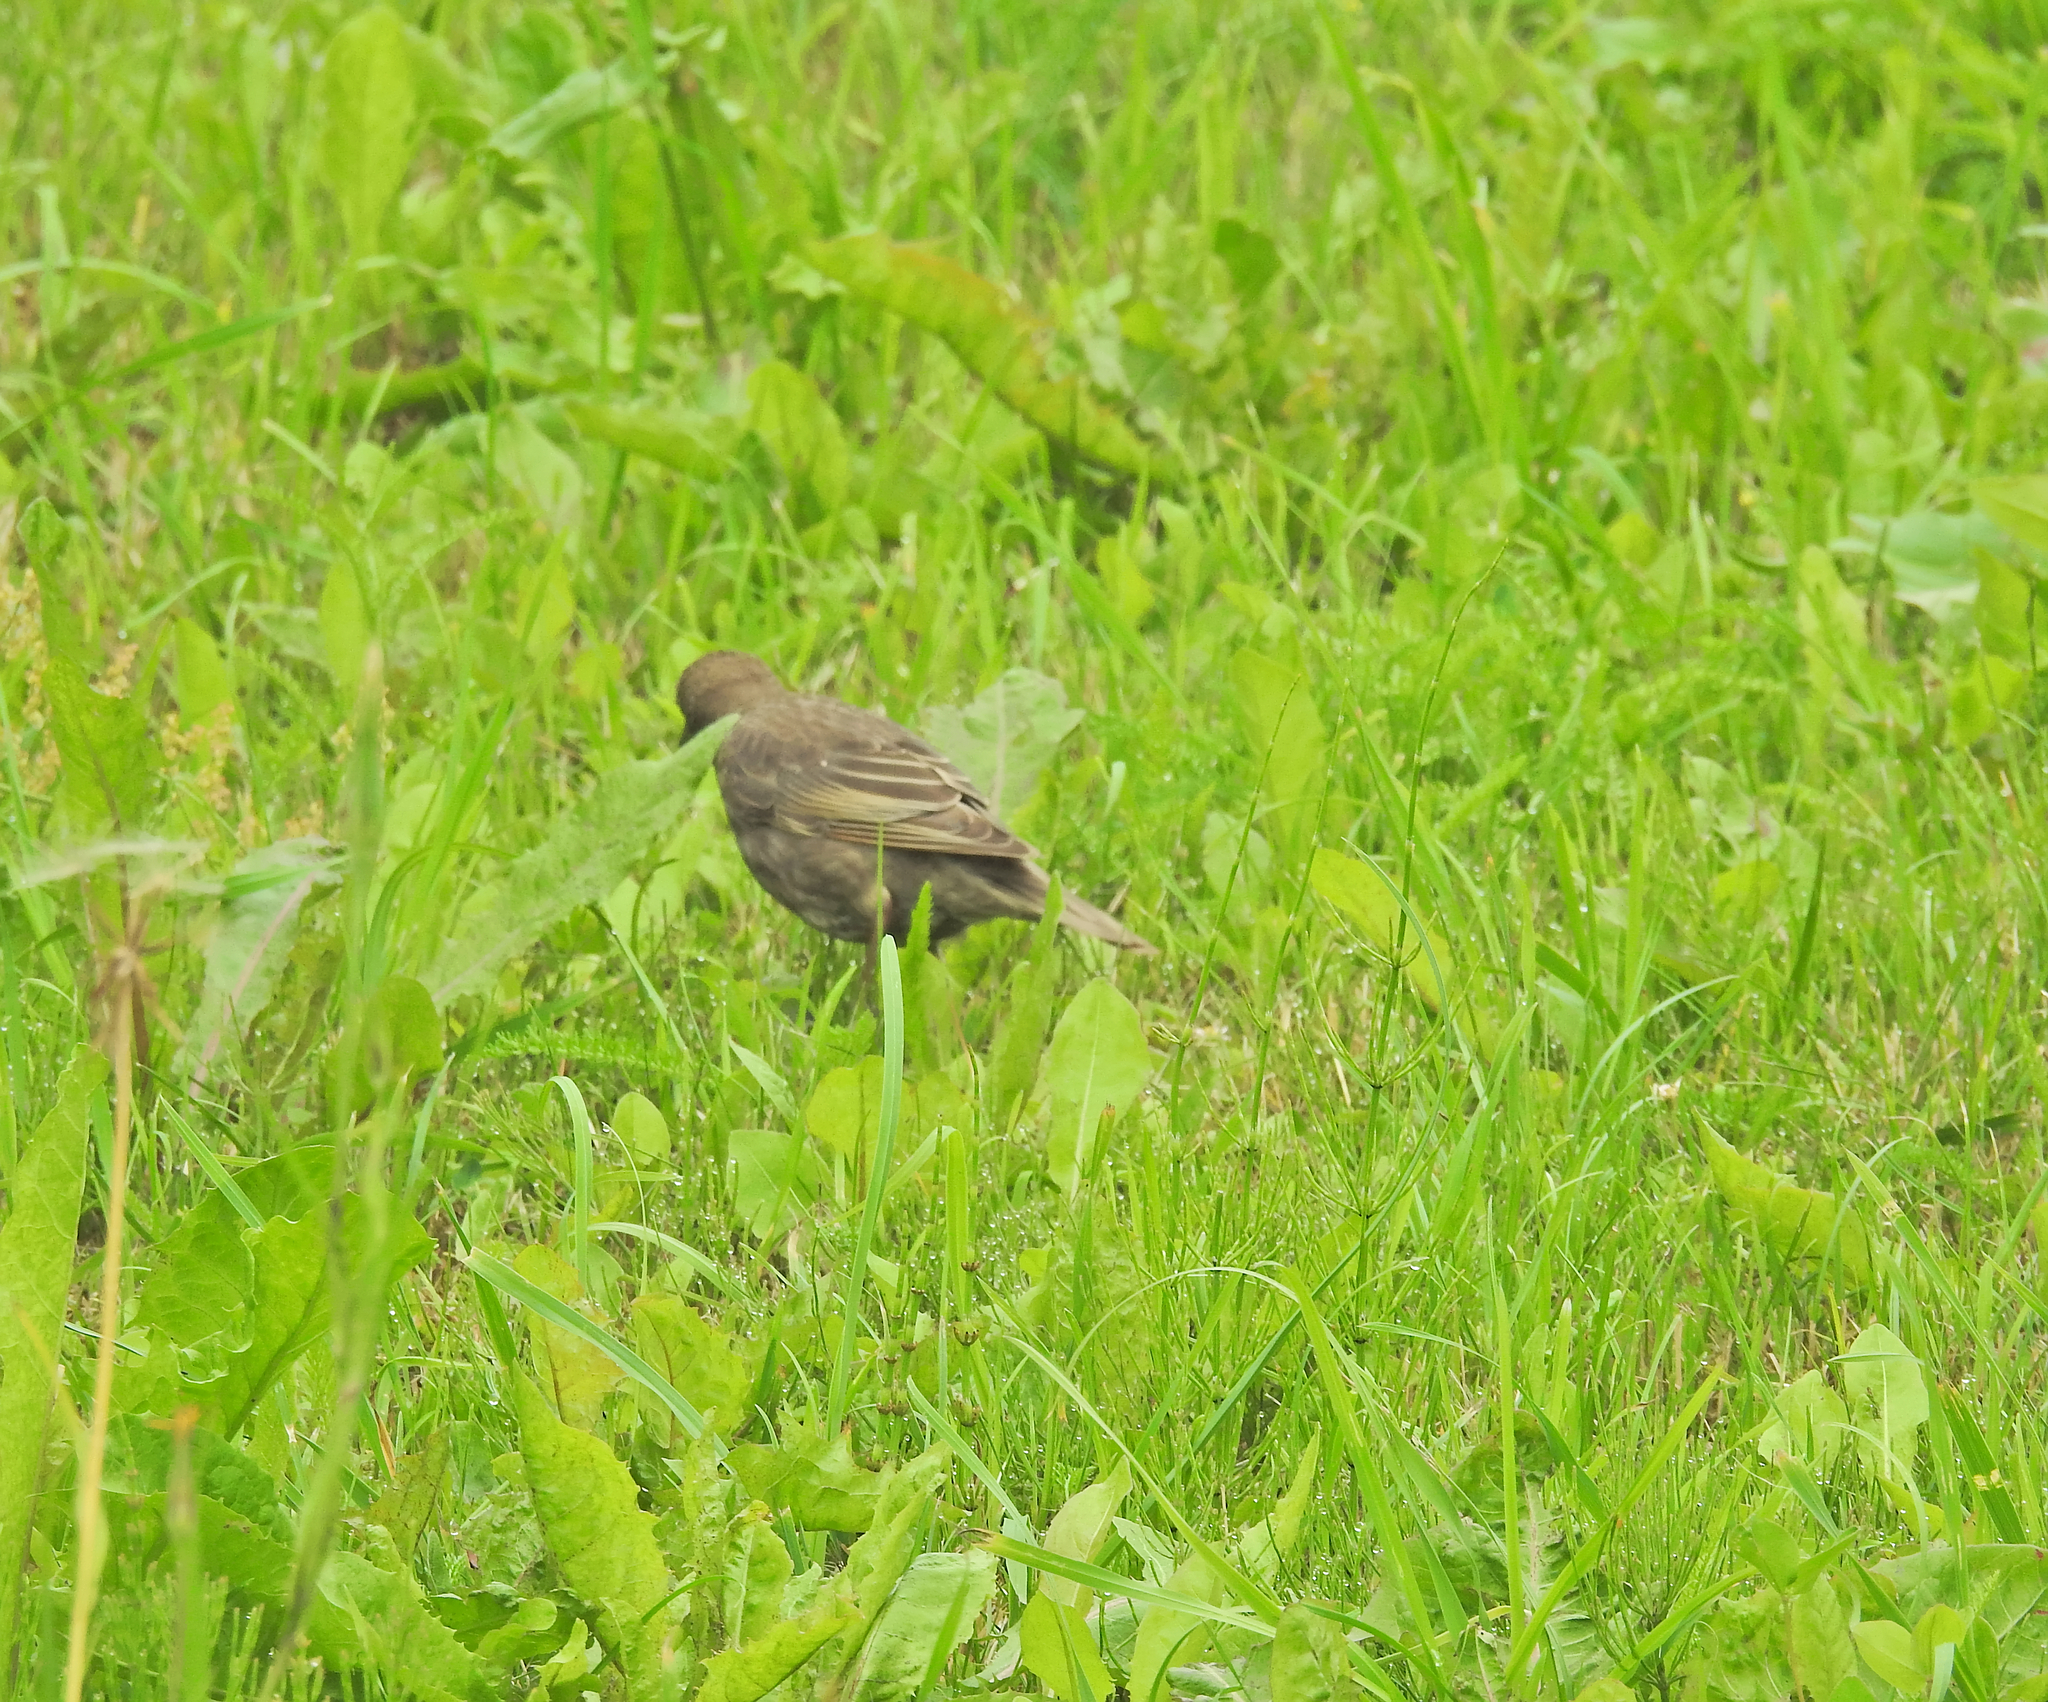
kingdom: Animalia
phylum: Chordata
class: Aves
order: Passeriformes
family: Sturnidae
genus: Sturnus
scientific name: Sturnus vulgaris
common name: Common starling
